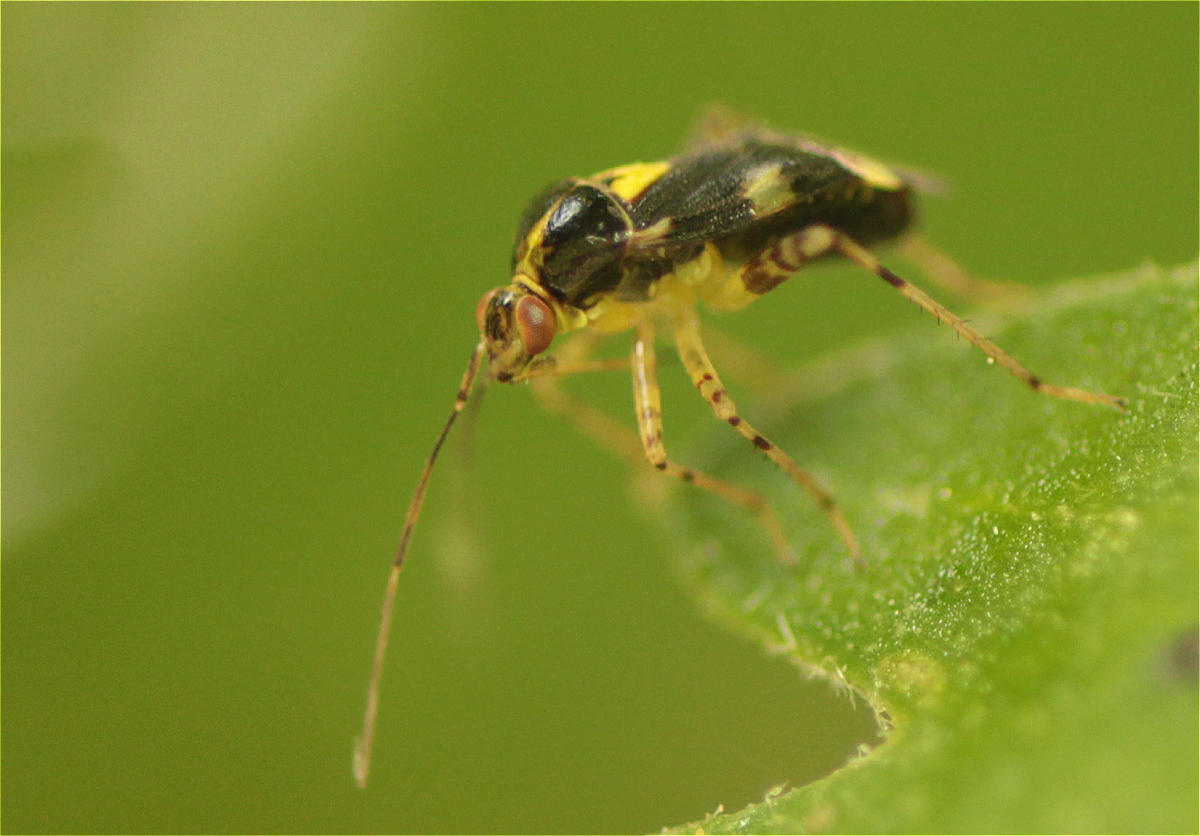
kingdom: Animalia
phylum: Arthropoda
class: Insecta
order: Hemiptera
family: Miridae
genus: Liocoris
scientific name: Liocoris tripustulatus
